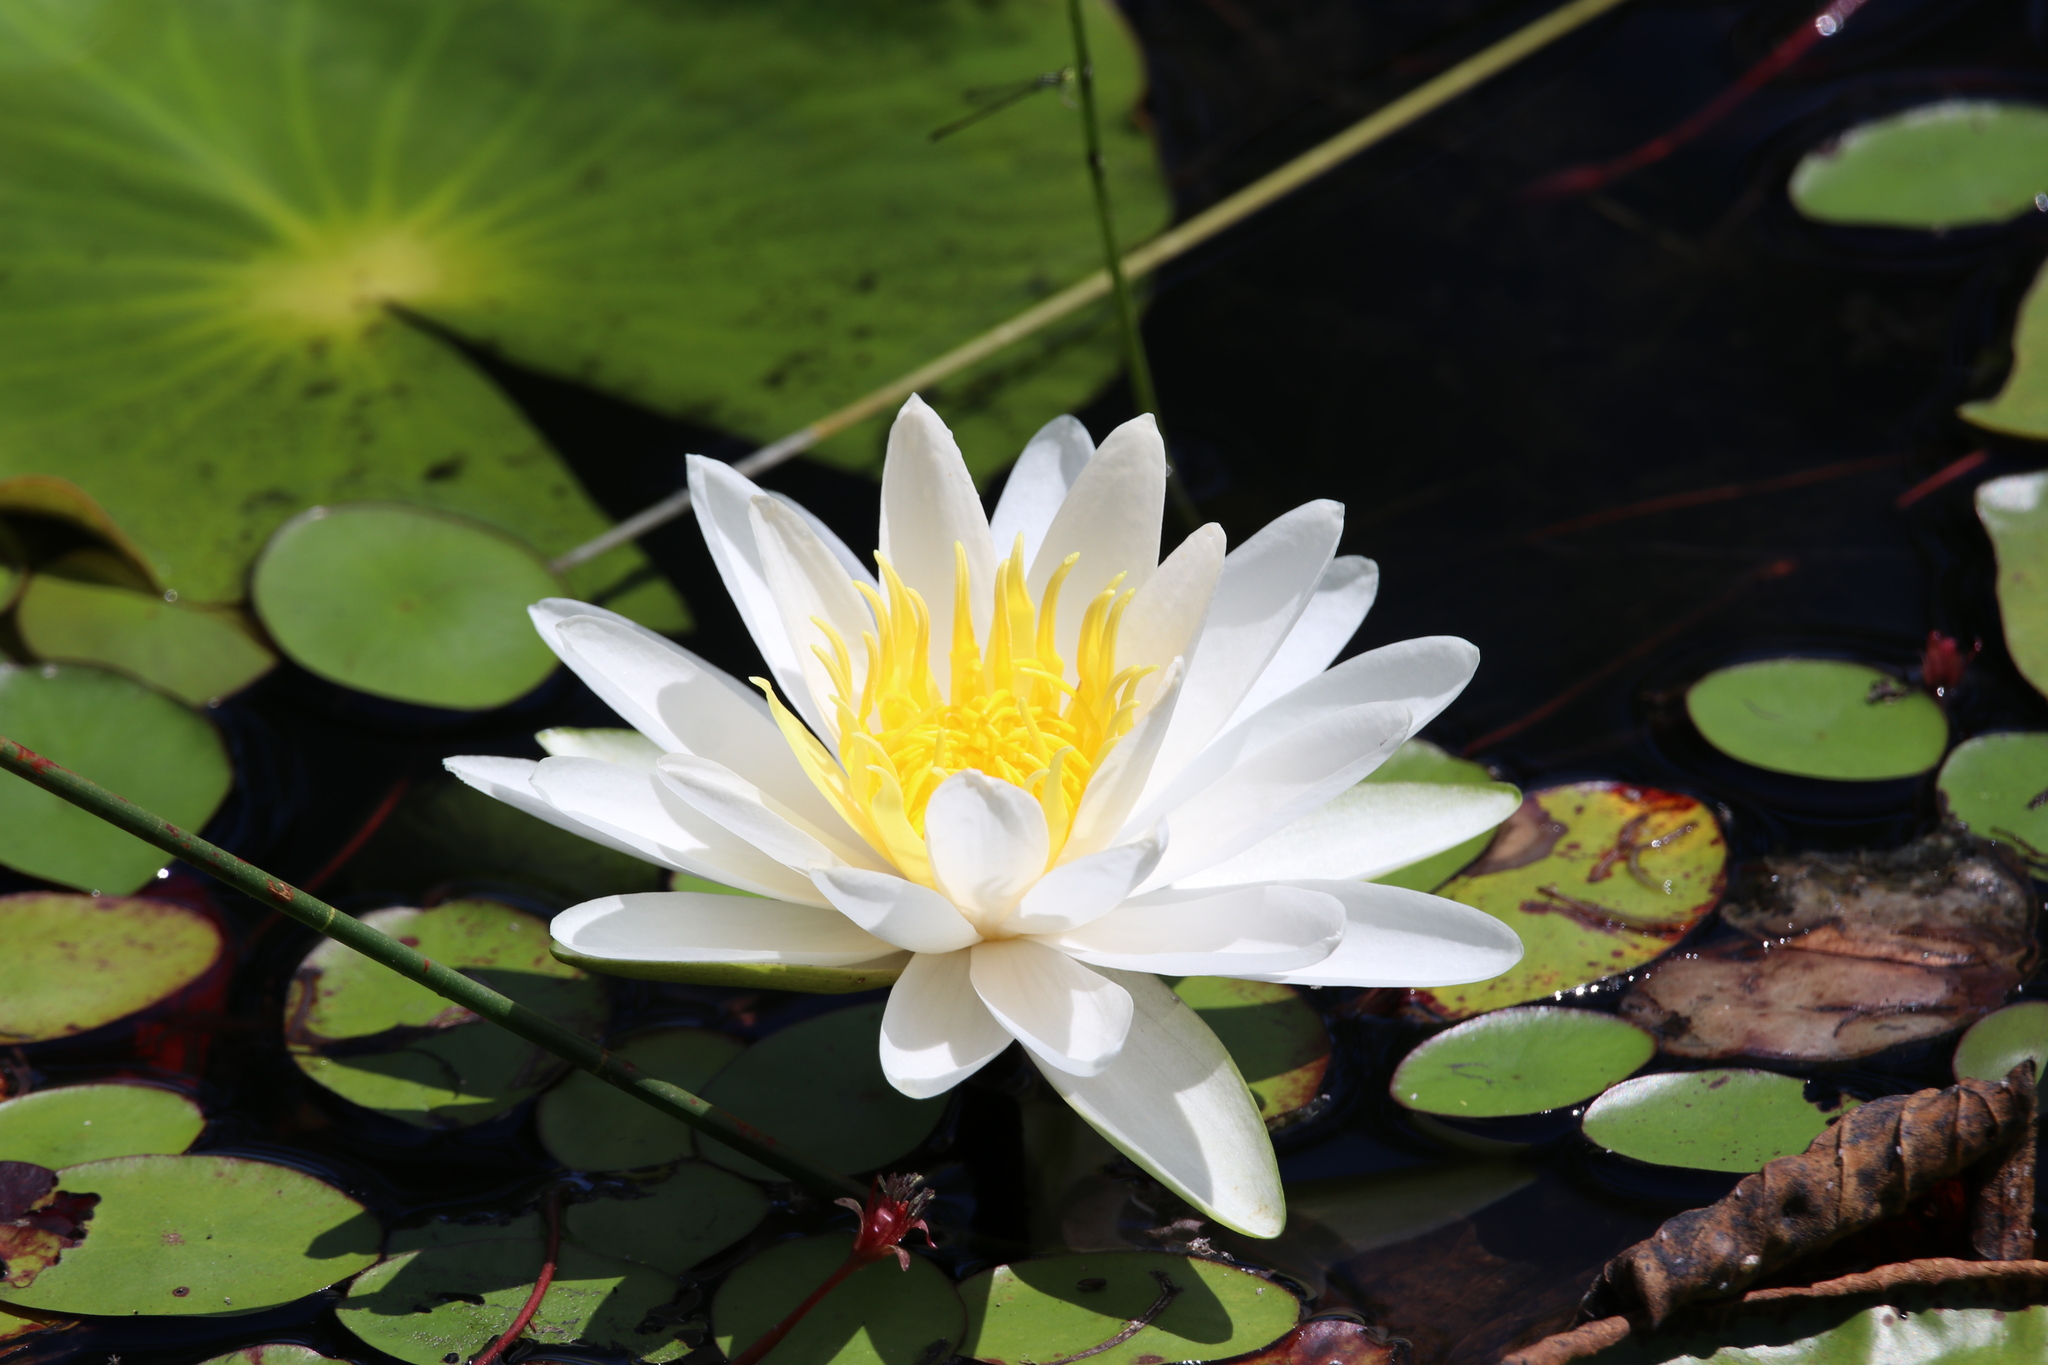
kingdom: Plantae
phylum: Tracheophyta
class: Magnoliopsida
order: Nymphaeales
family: Nymphaeaceae
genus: Nymphaea
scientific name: Nymphaea odorata
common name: Fragrant water-lily
